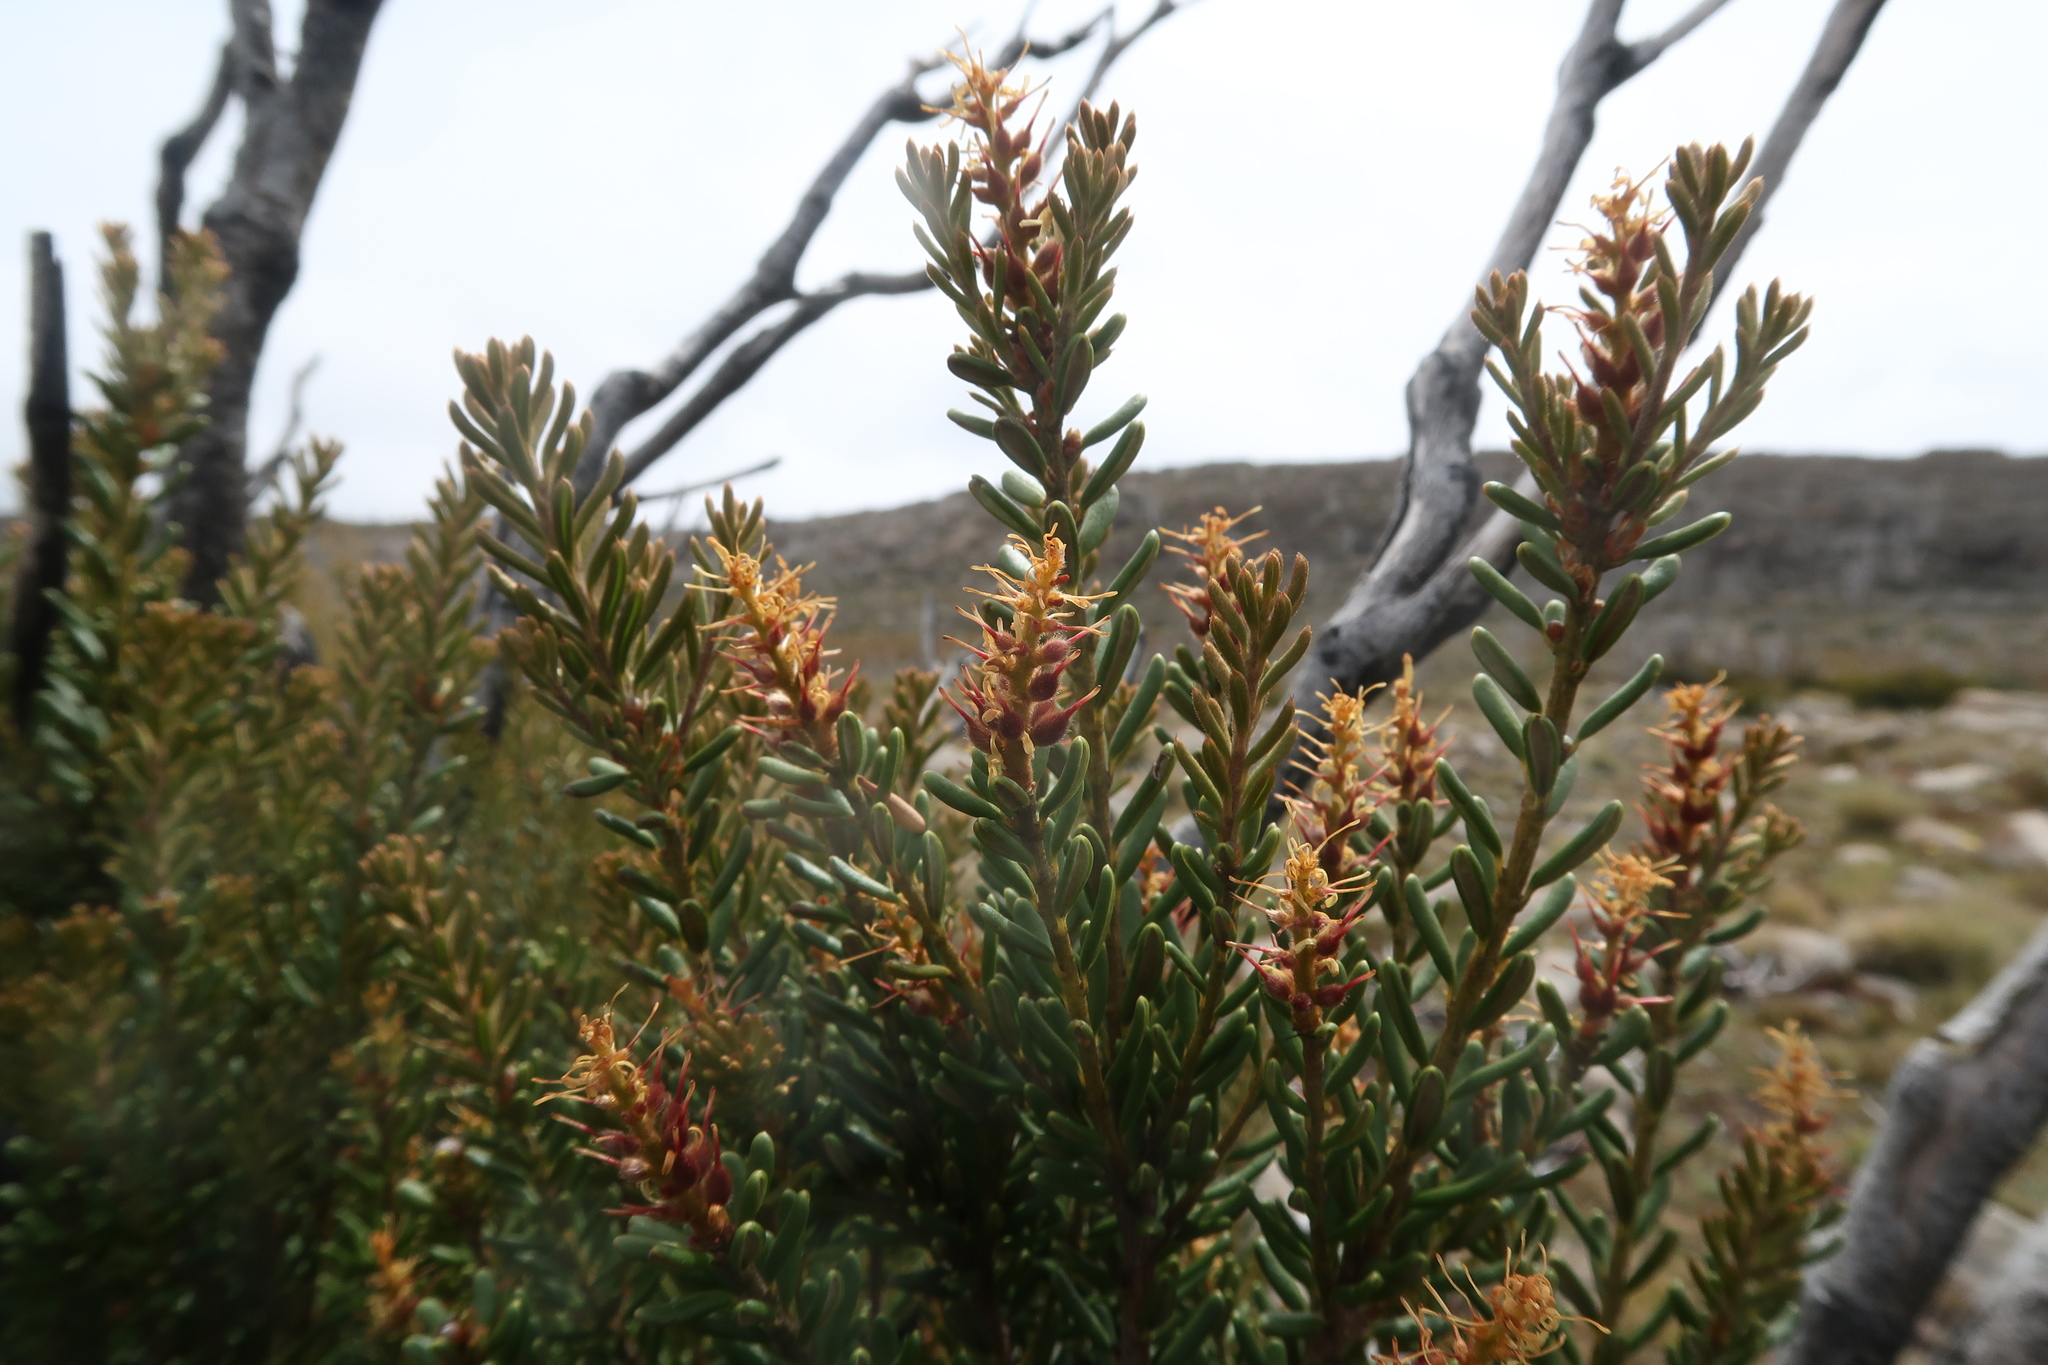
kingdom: Plantae
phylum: Tracheophyta
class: Magnoliopsida
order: Proteales
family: Proteaceae
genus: Orites
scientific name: Orites revolutus
